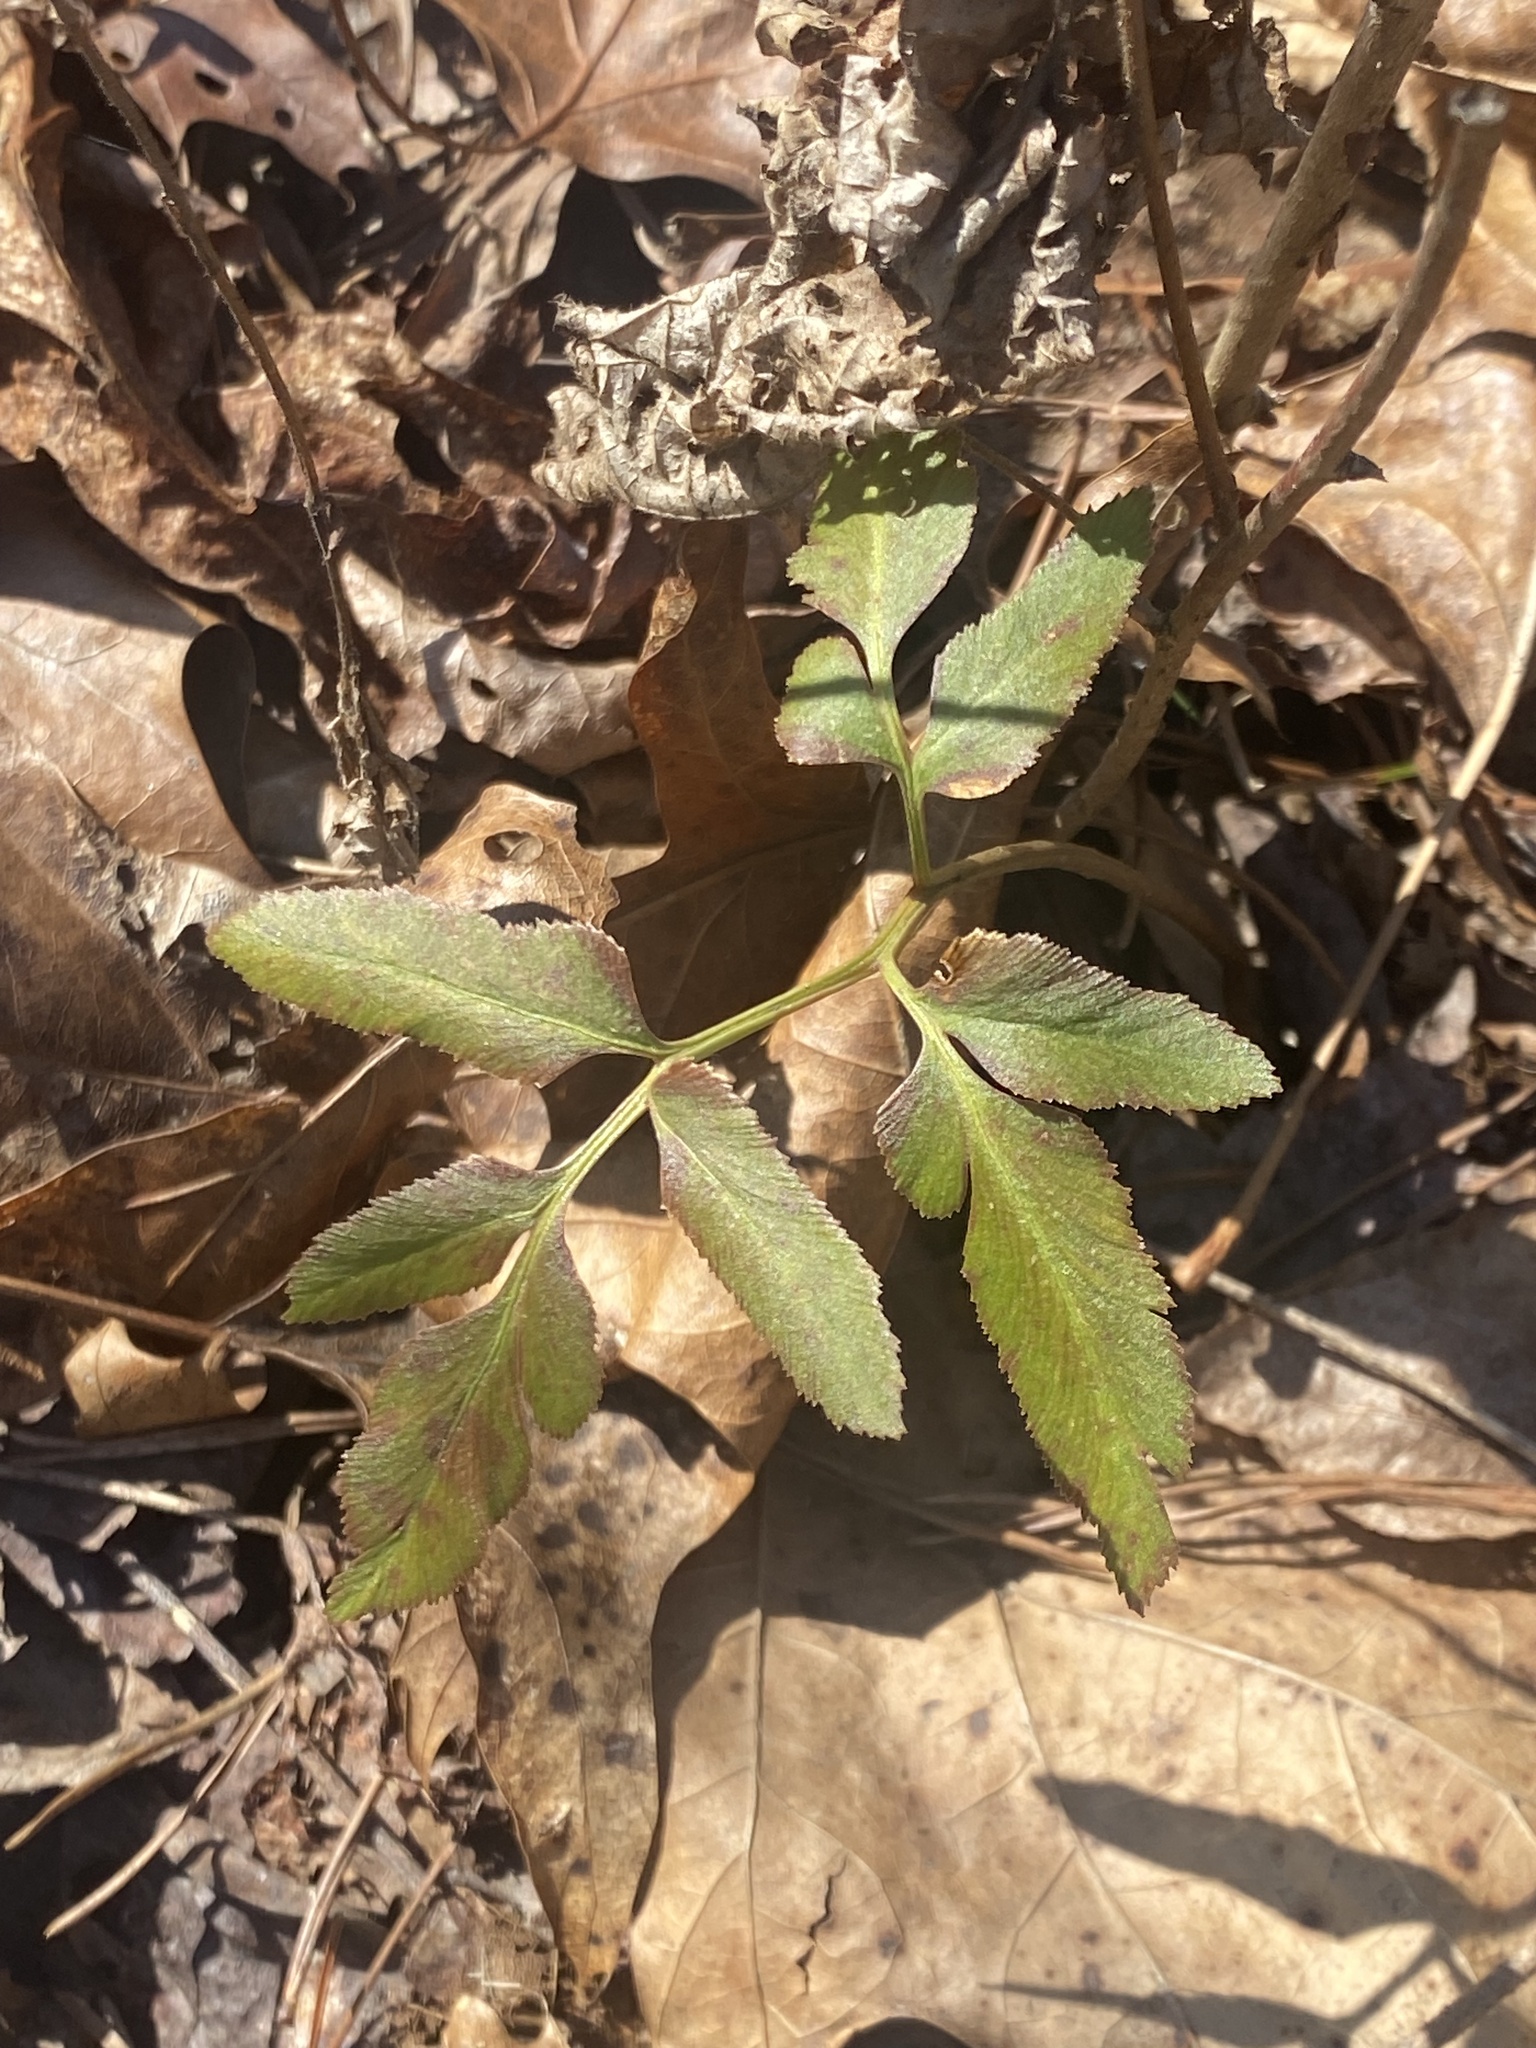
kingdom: Plantae
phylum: Tracheophyta
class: Polypodiopsida
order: Ophioglossales
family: Ophioglossaceae
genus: Sceptridium
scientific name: Sceptridium dissectum
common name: Cut-leaved grapefern
